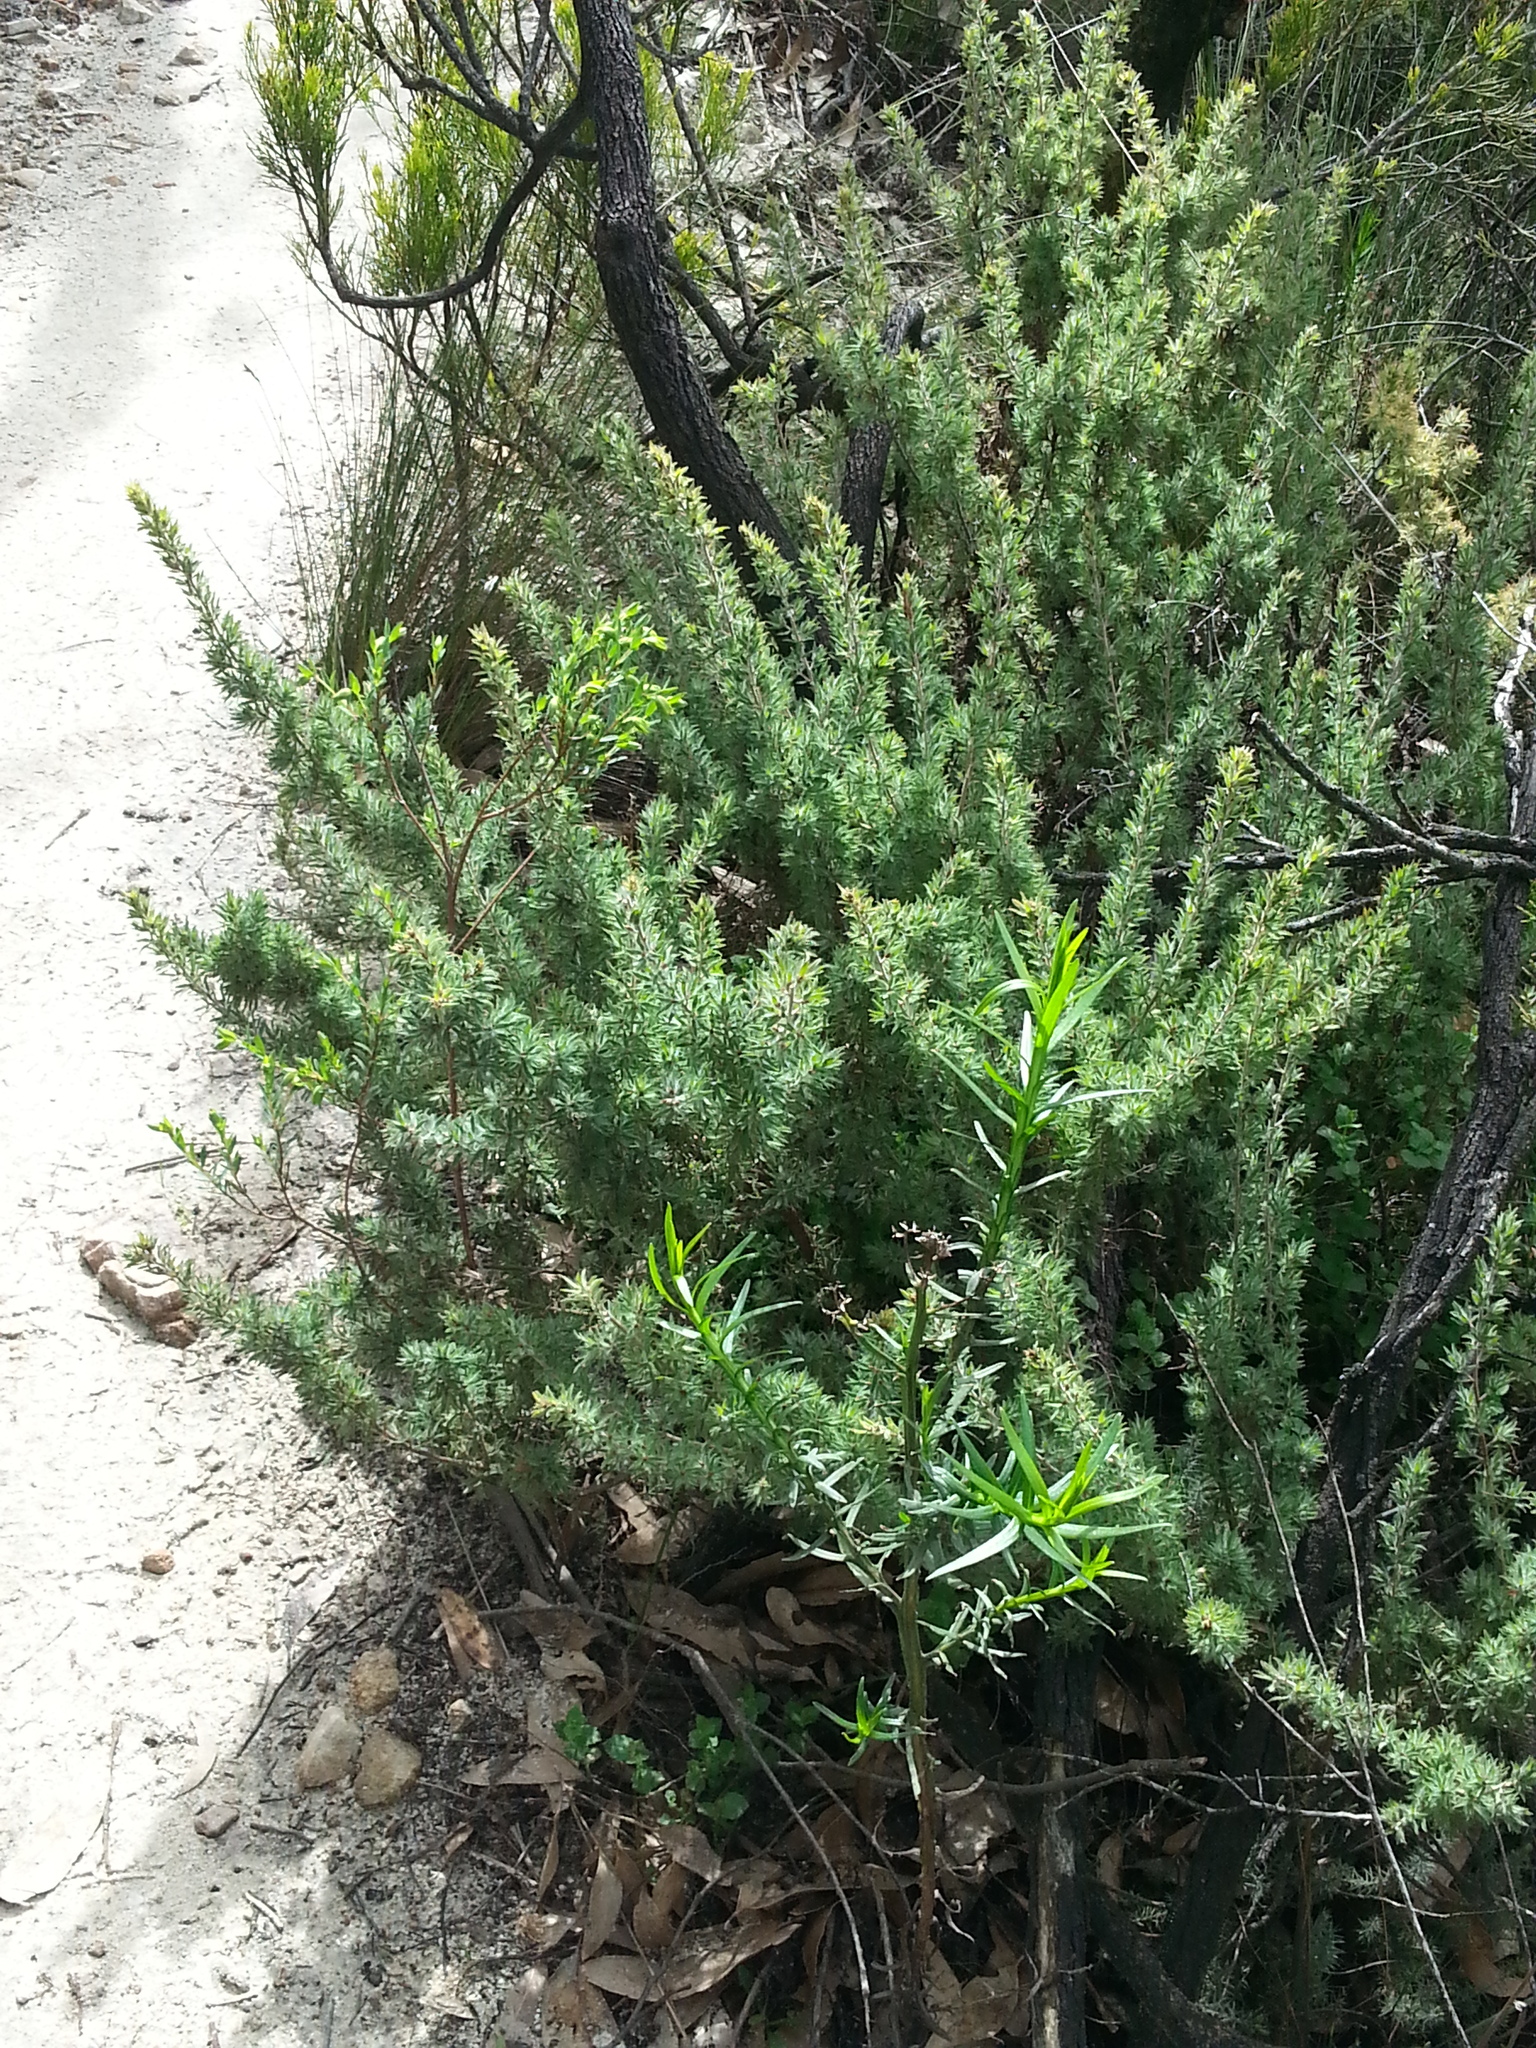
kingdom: Plantae
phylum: Tracheophyta
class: Magnoliopsida
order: Ericales
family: Ericaceae
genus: Acrotriche
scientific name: Acrotriche serrulata
